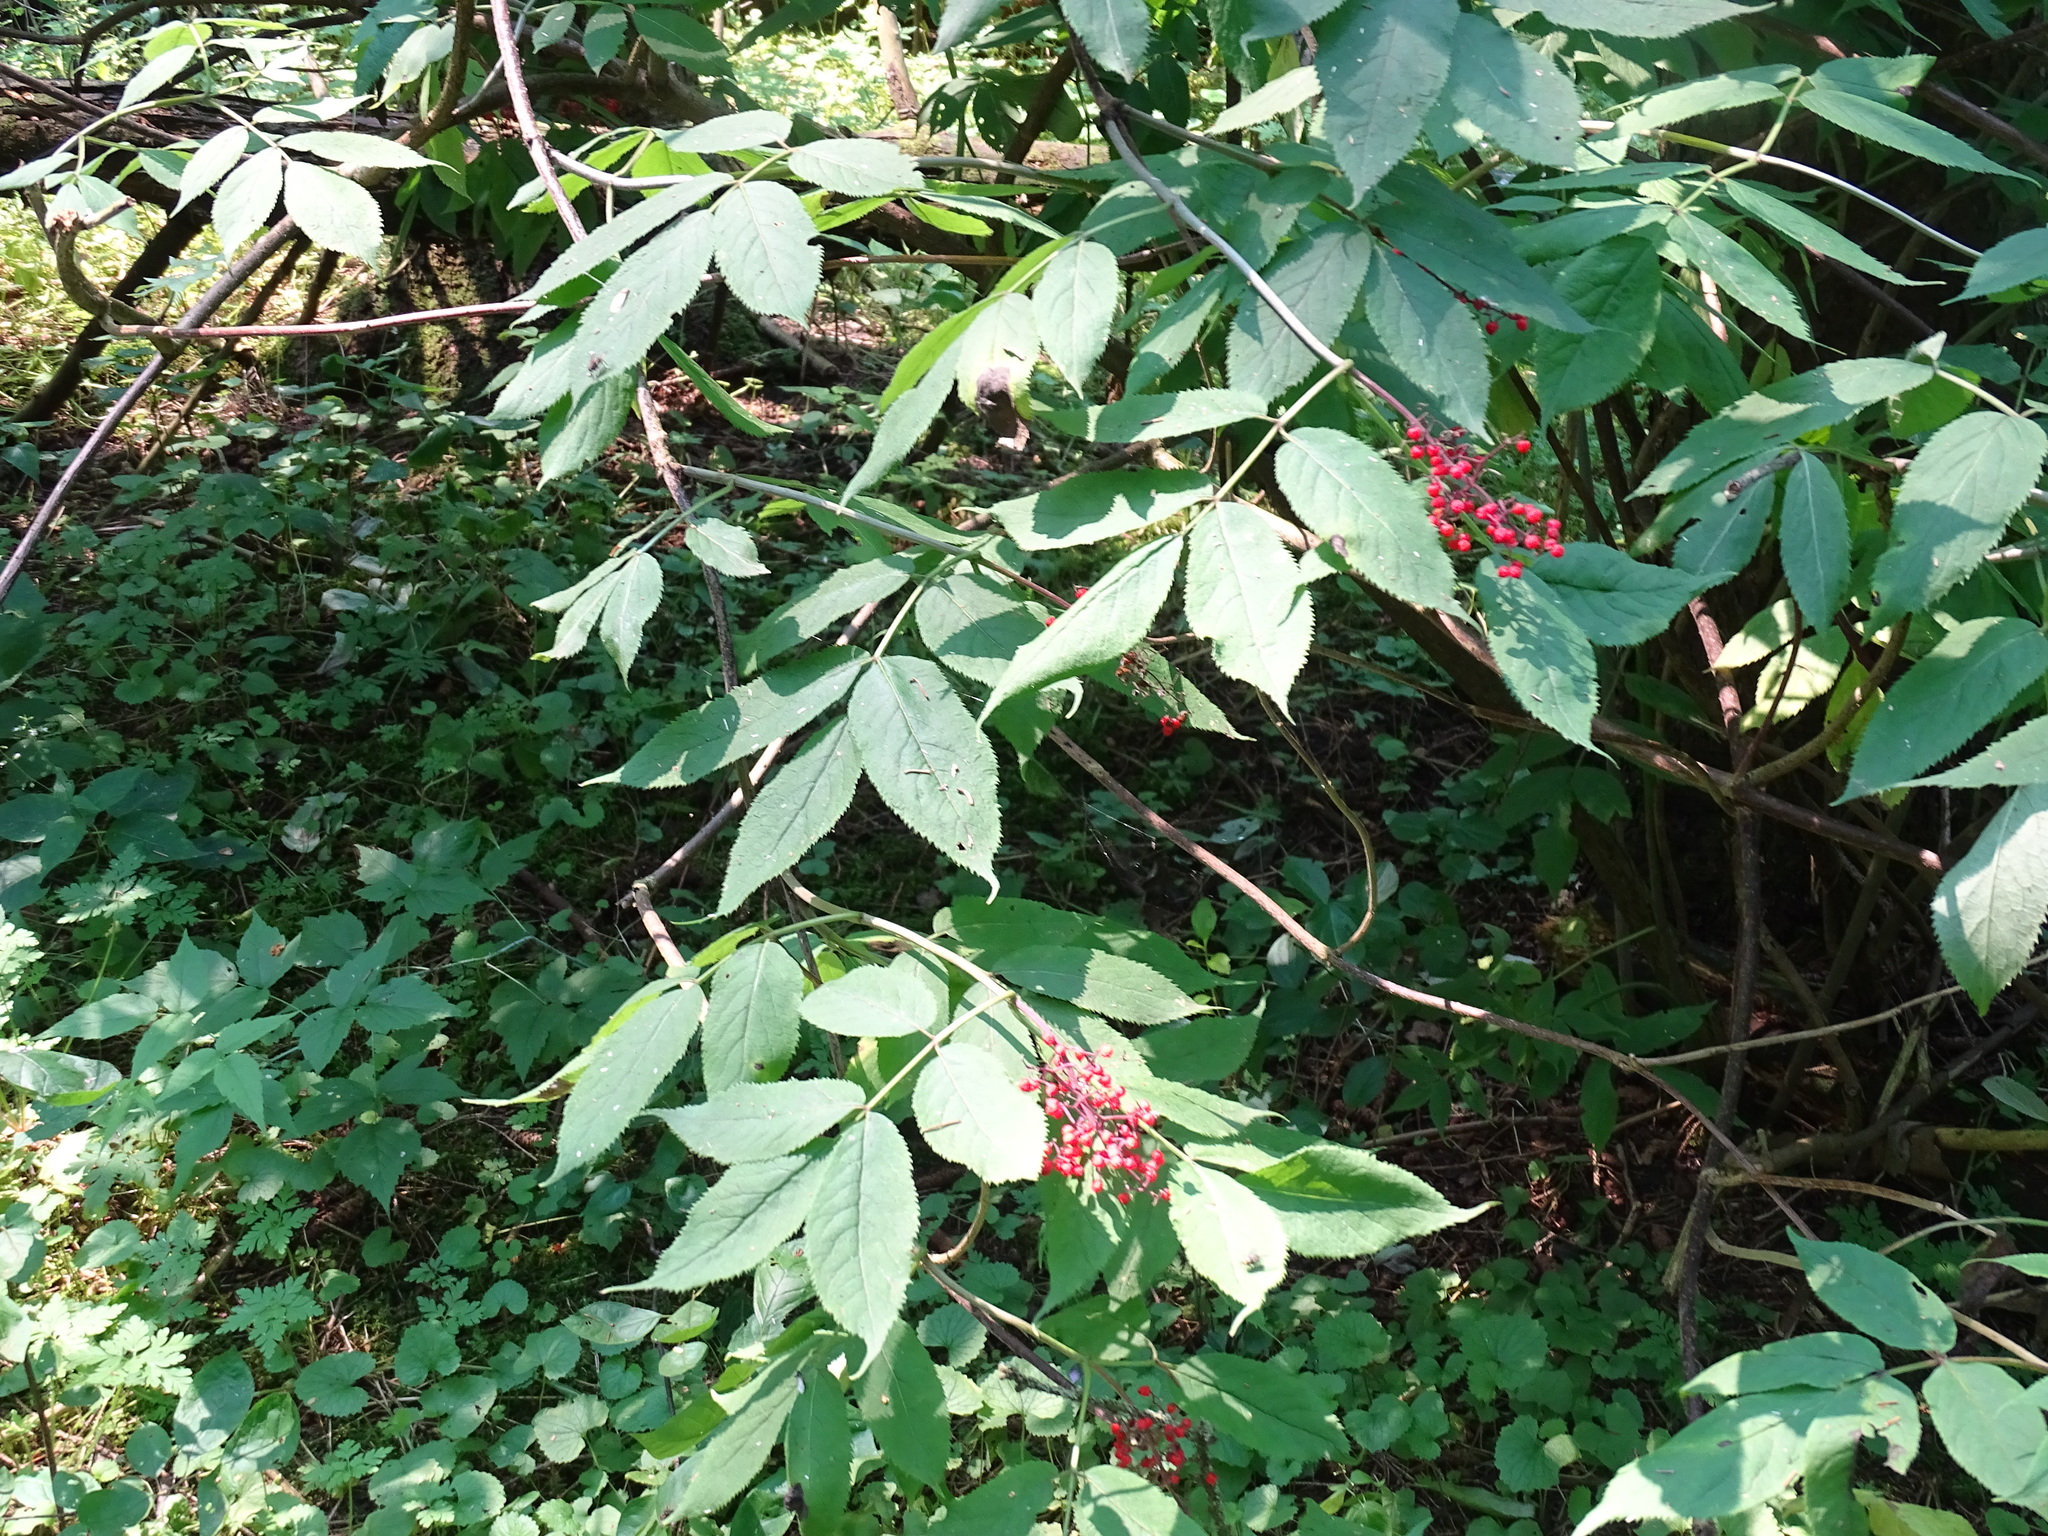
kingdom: Plantae
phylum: Tracheophyta
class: Magnoliopsida
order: Dipsacales
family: Viburnaceae
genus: Sambucus
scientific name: Sambucus racemosa
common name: Red-berried elder
